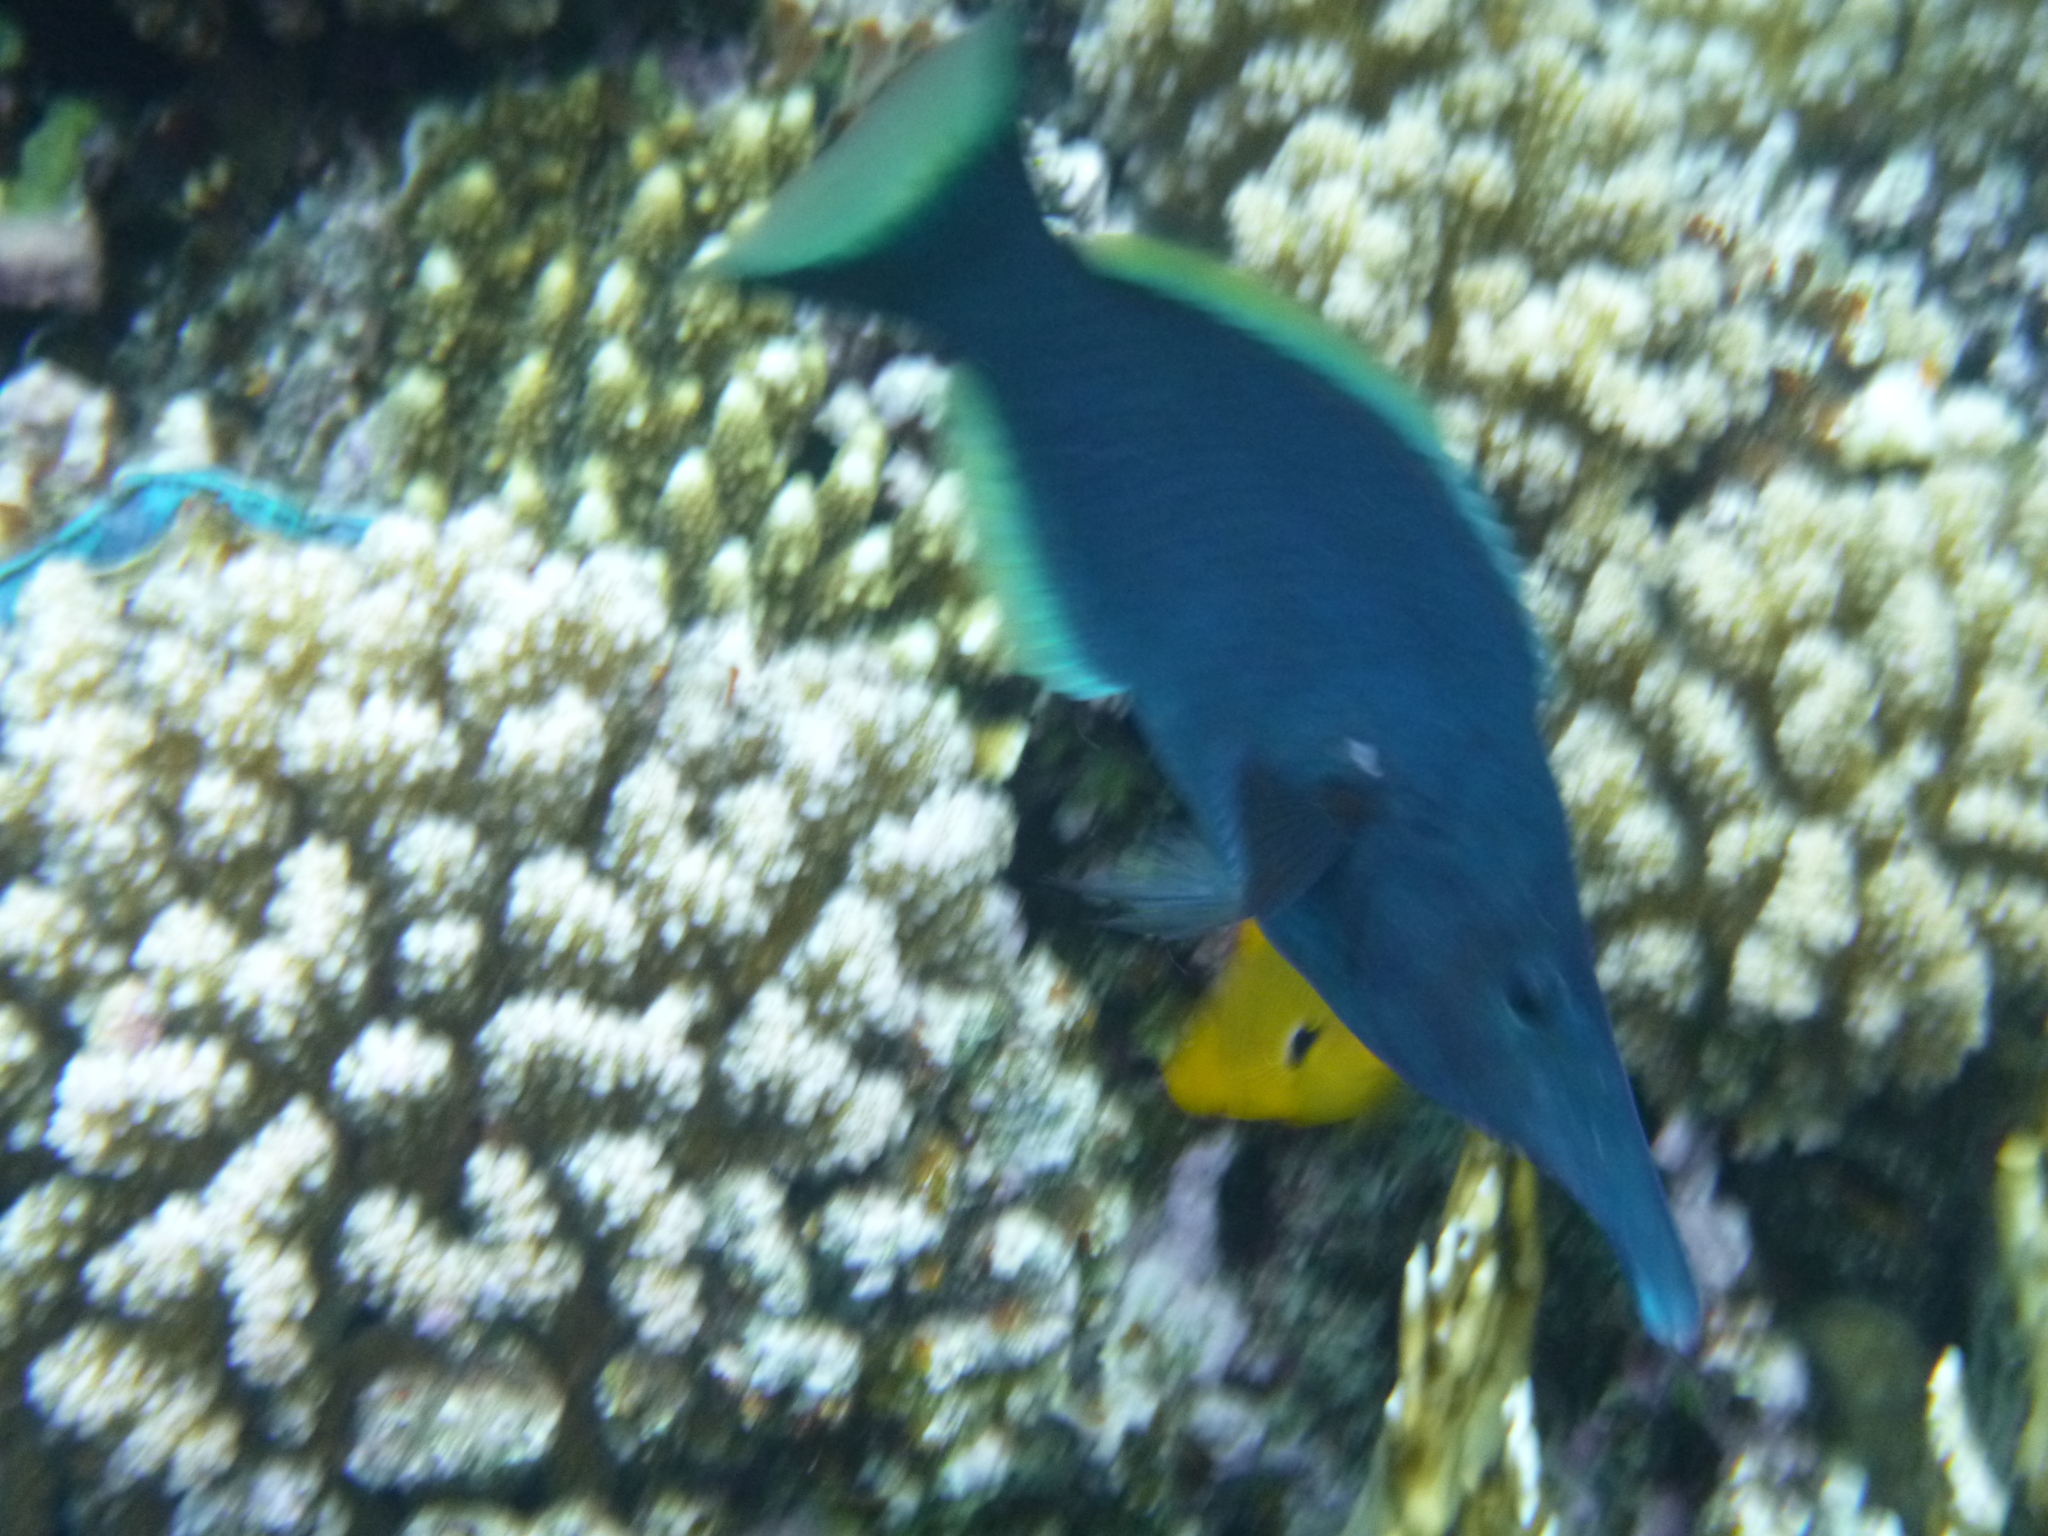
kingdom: Animalia
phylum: Chordata
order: Perciformes
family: Labridae
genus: Gomphosus
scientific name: Gomphosus klunzingeri
